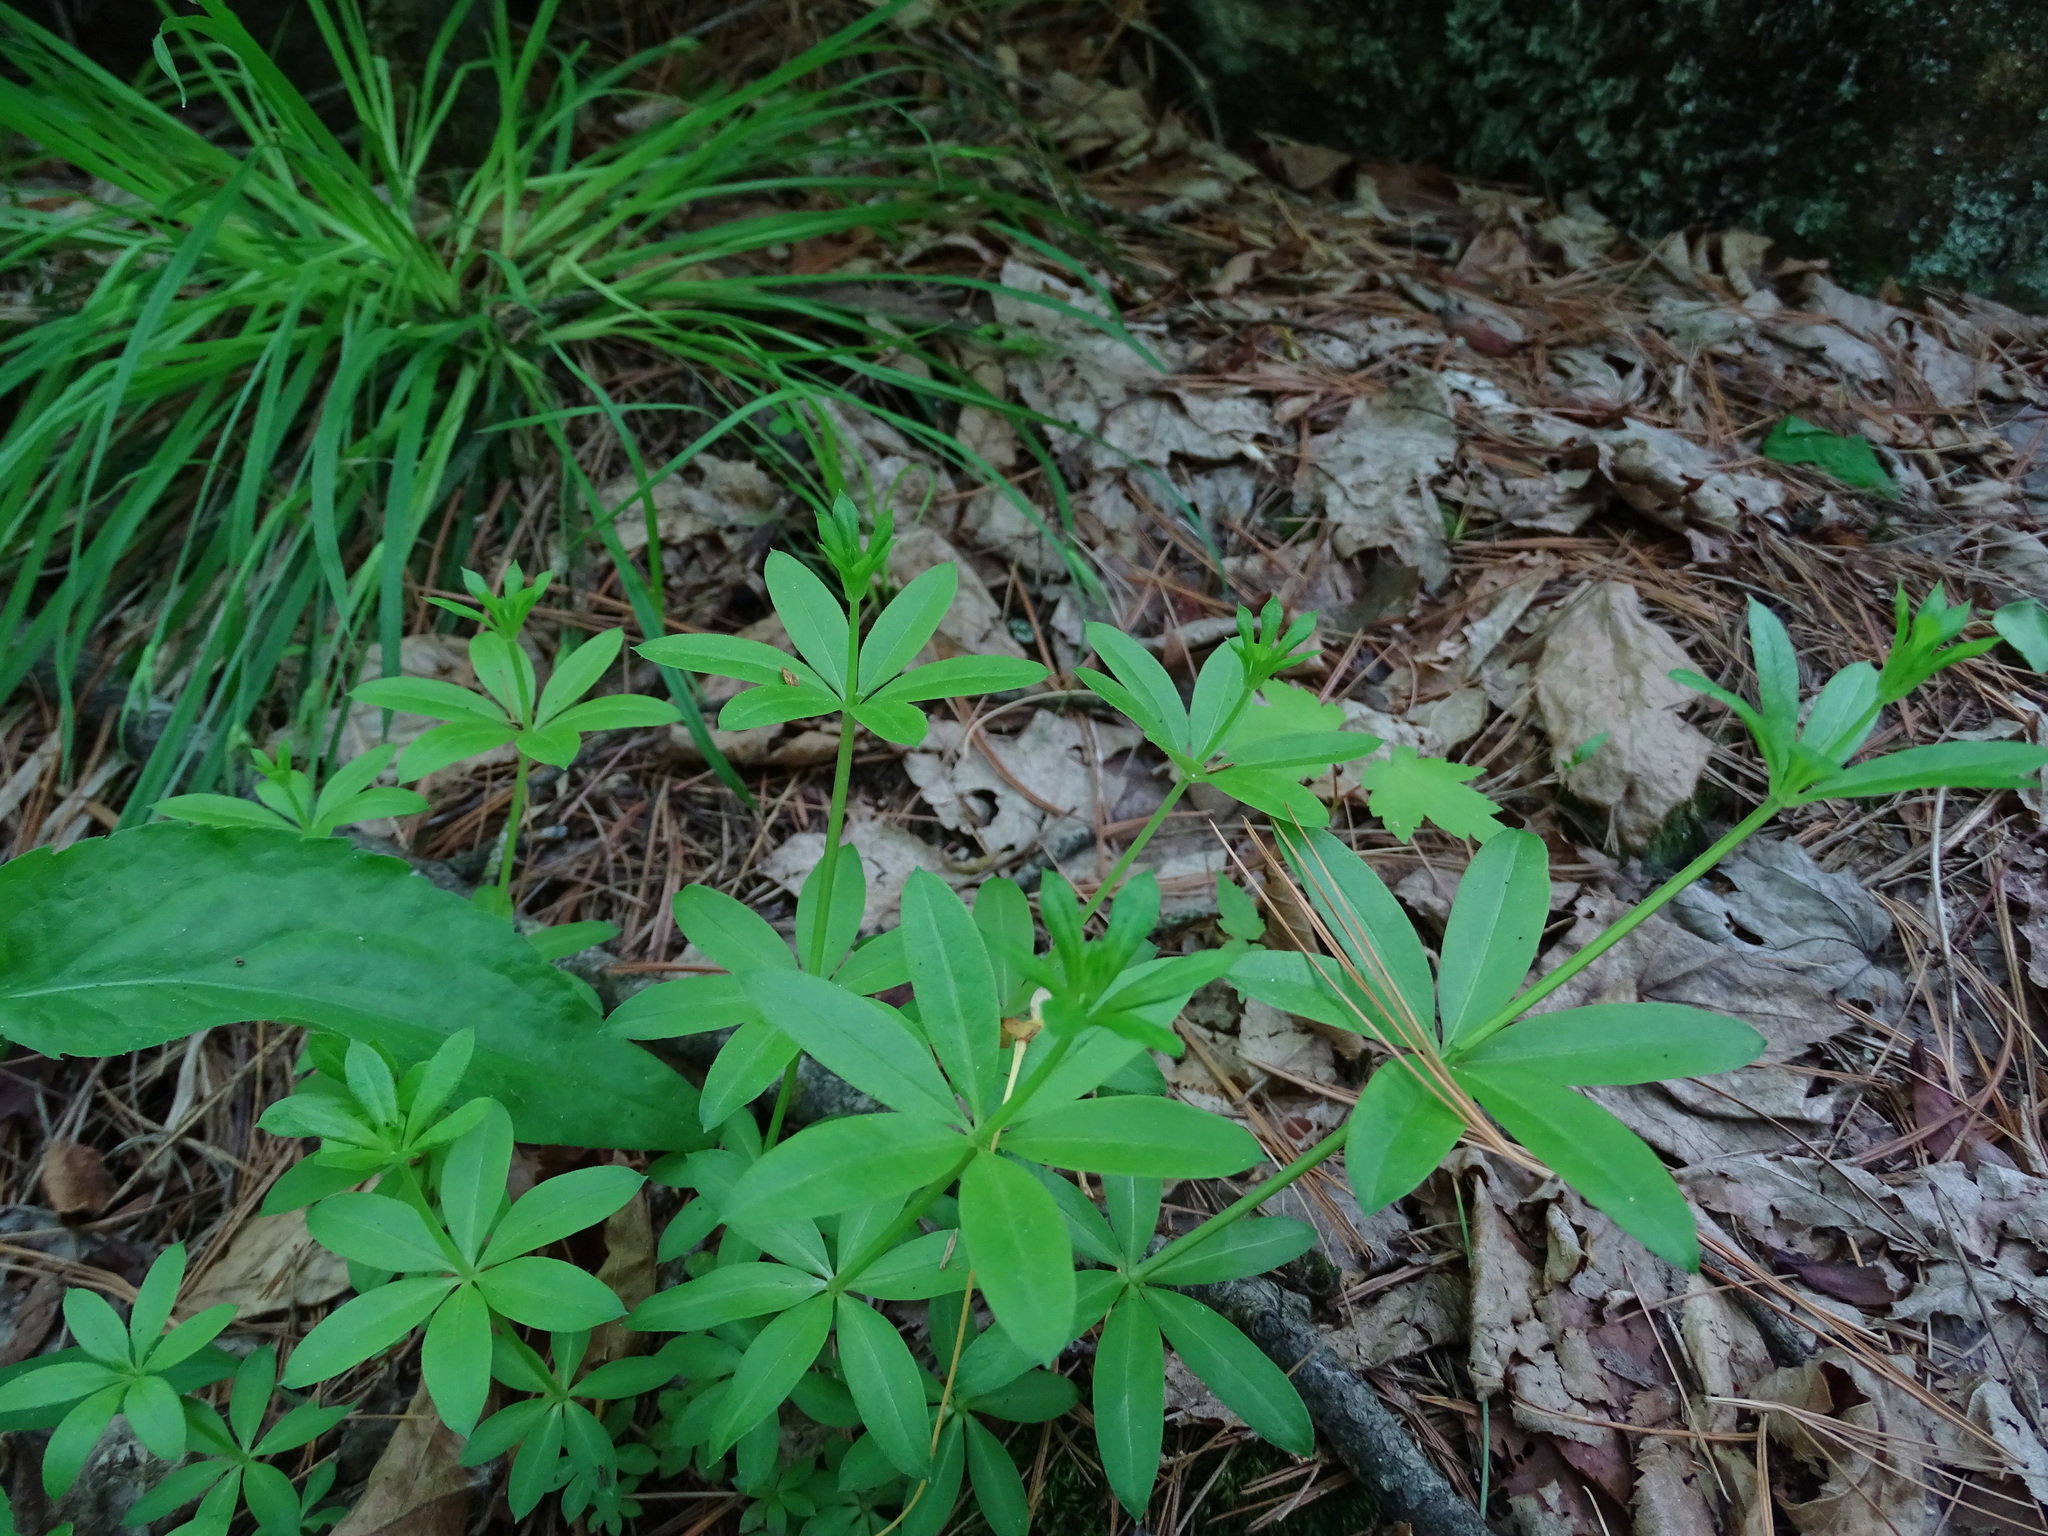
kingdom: Plantae
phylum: Tracheophyta
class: Magnoliopsida
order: Gentianales
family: Rubiaceae
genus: Galium
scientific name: Galium triflorum
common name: Fragrant bedstraw
